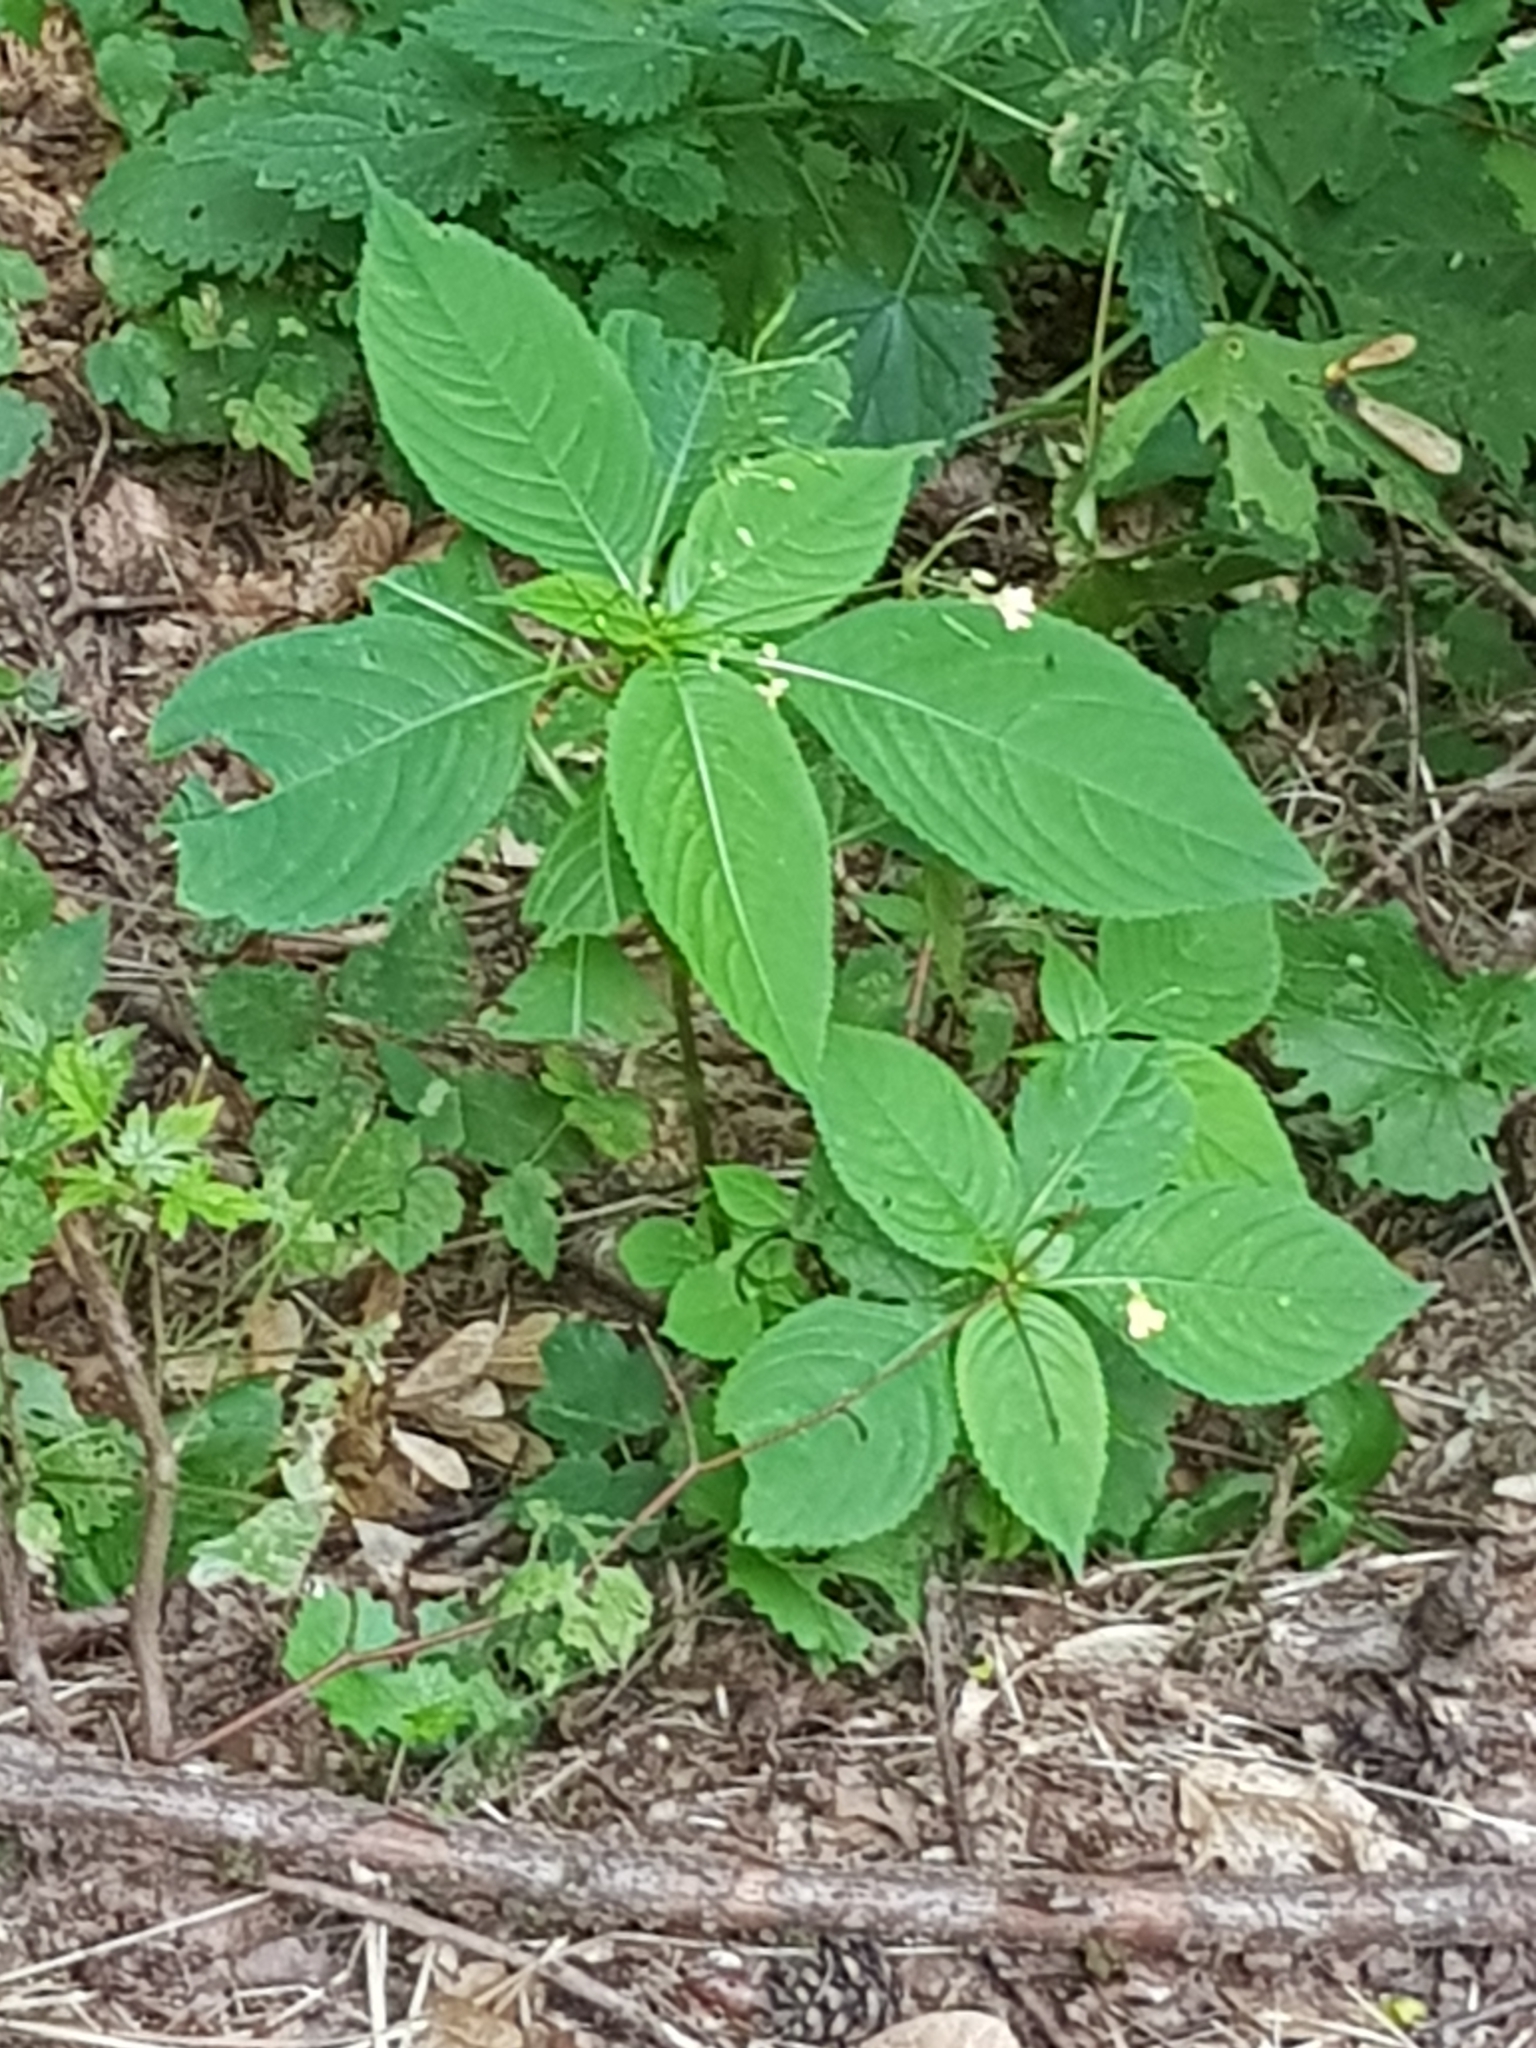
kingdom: Plantae
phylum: Tracheophyta
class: Magnoliopsida
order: Ericales
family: Balsaminaceae
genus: Impatiens
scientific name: Impatiens parviflora
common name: Small balsam
